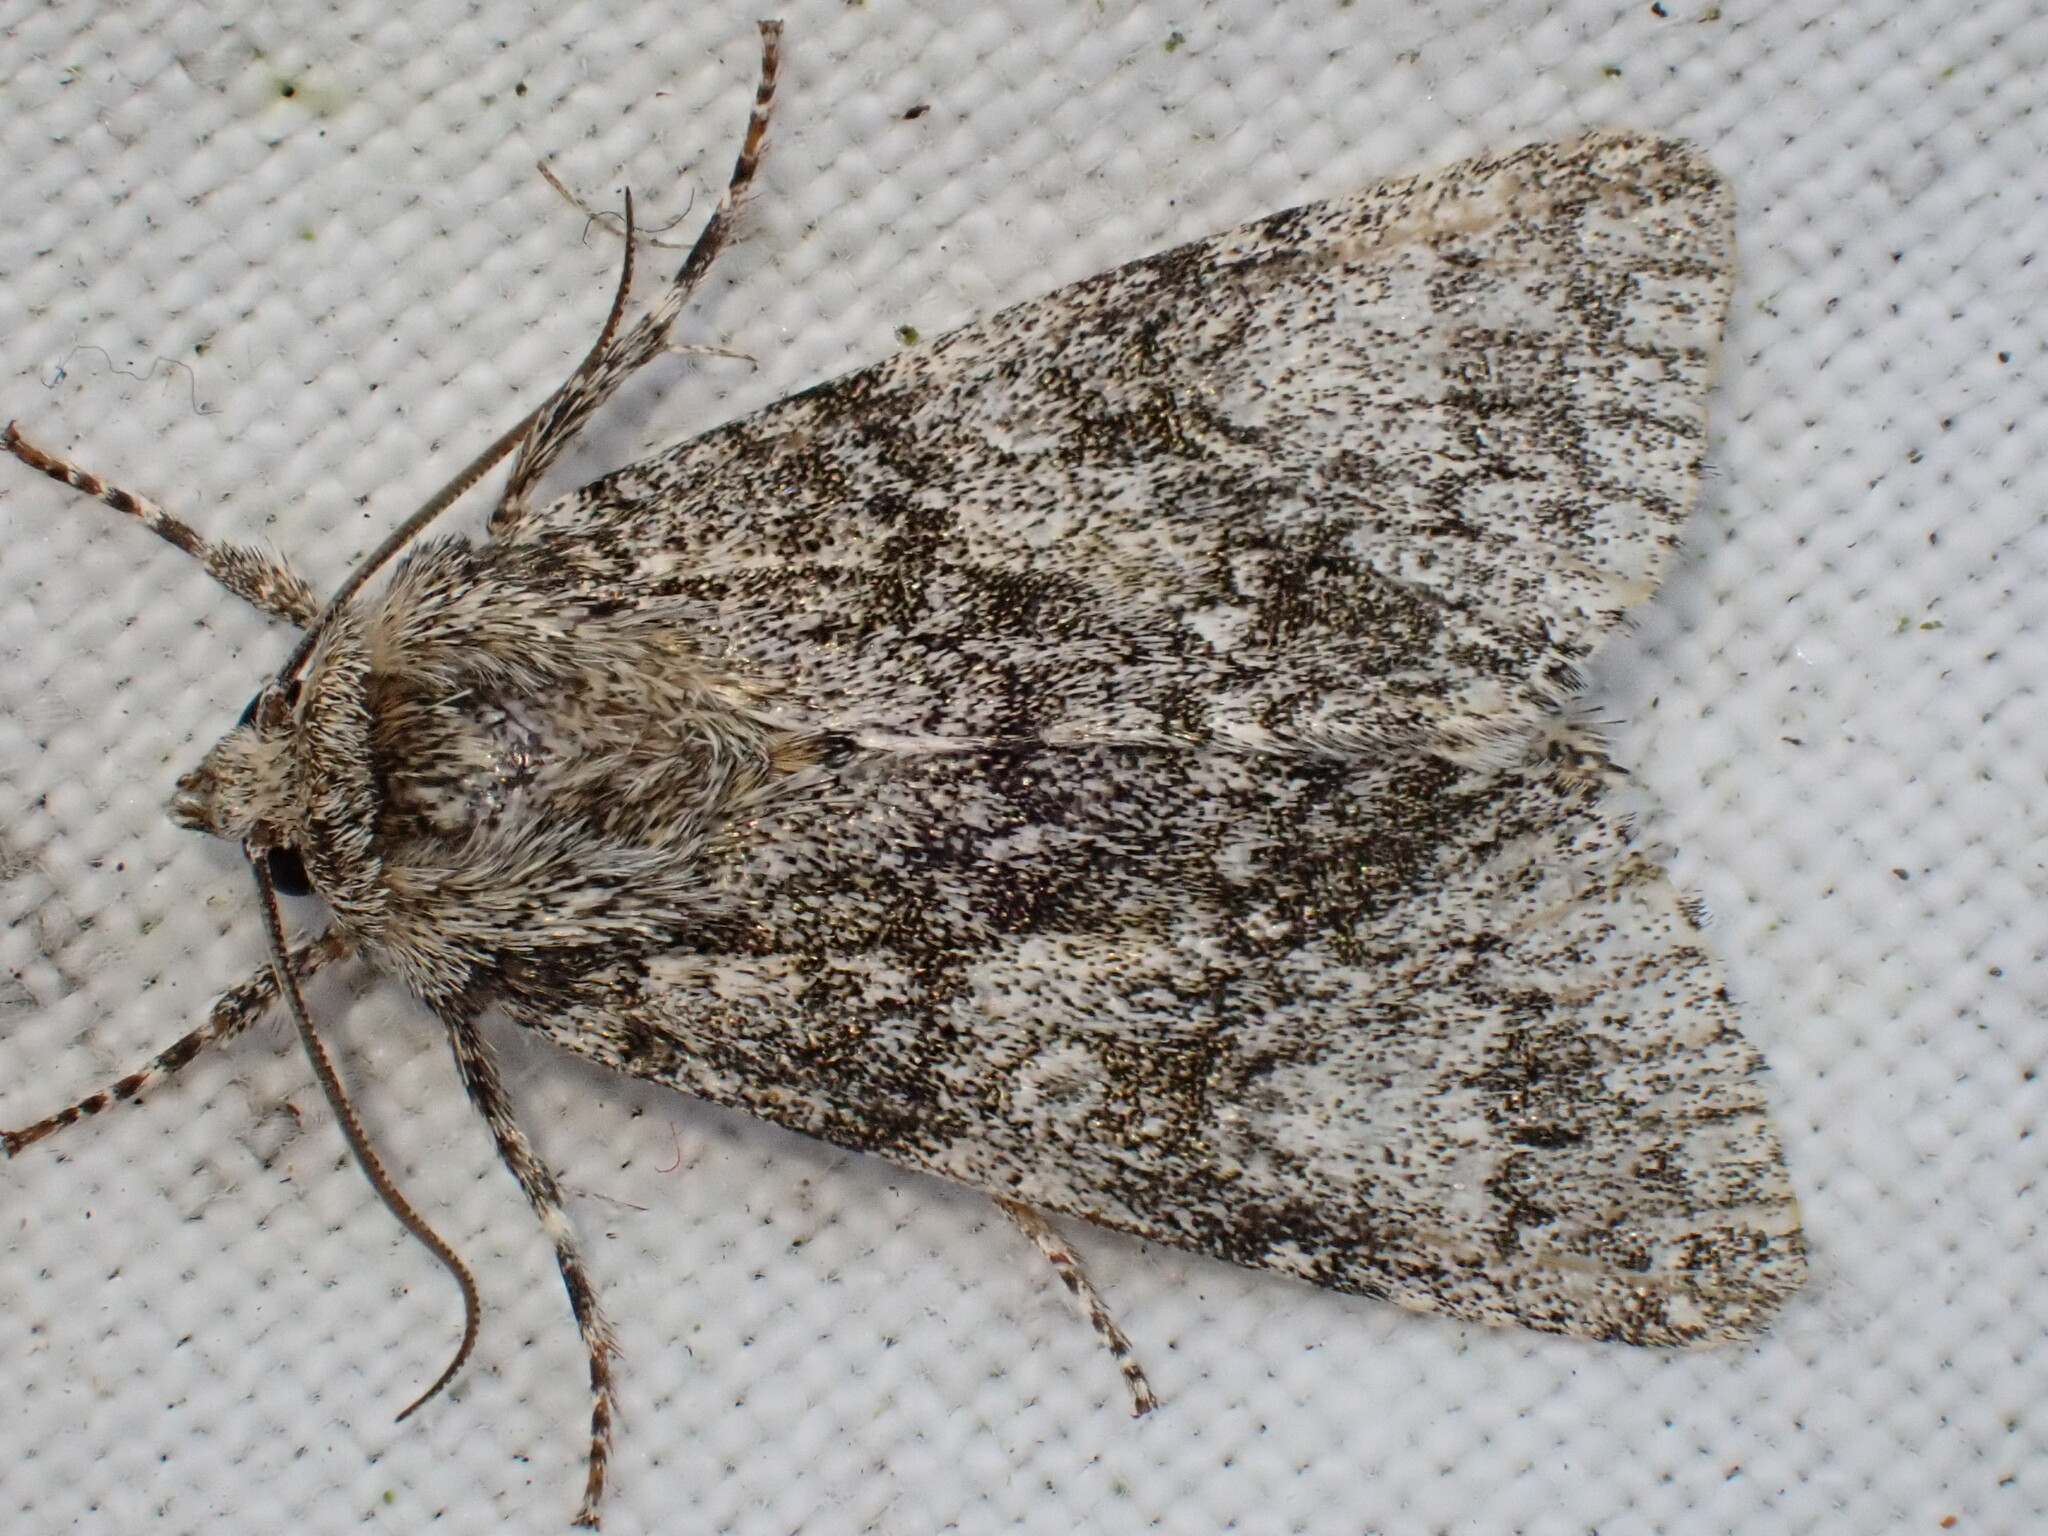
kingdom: Animalia
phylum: Arthropoda
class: Insecta
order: Lepidoptera
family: Noctuidae
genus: Acronicta
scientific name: Acronicta megacephala
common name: Poplar grey
